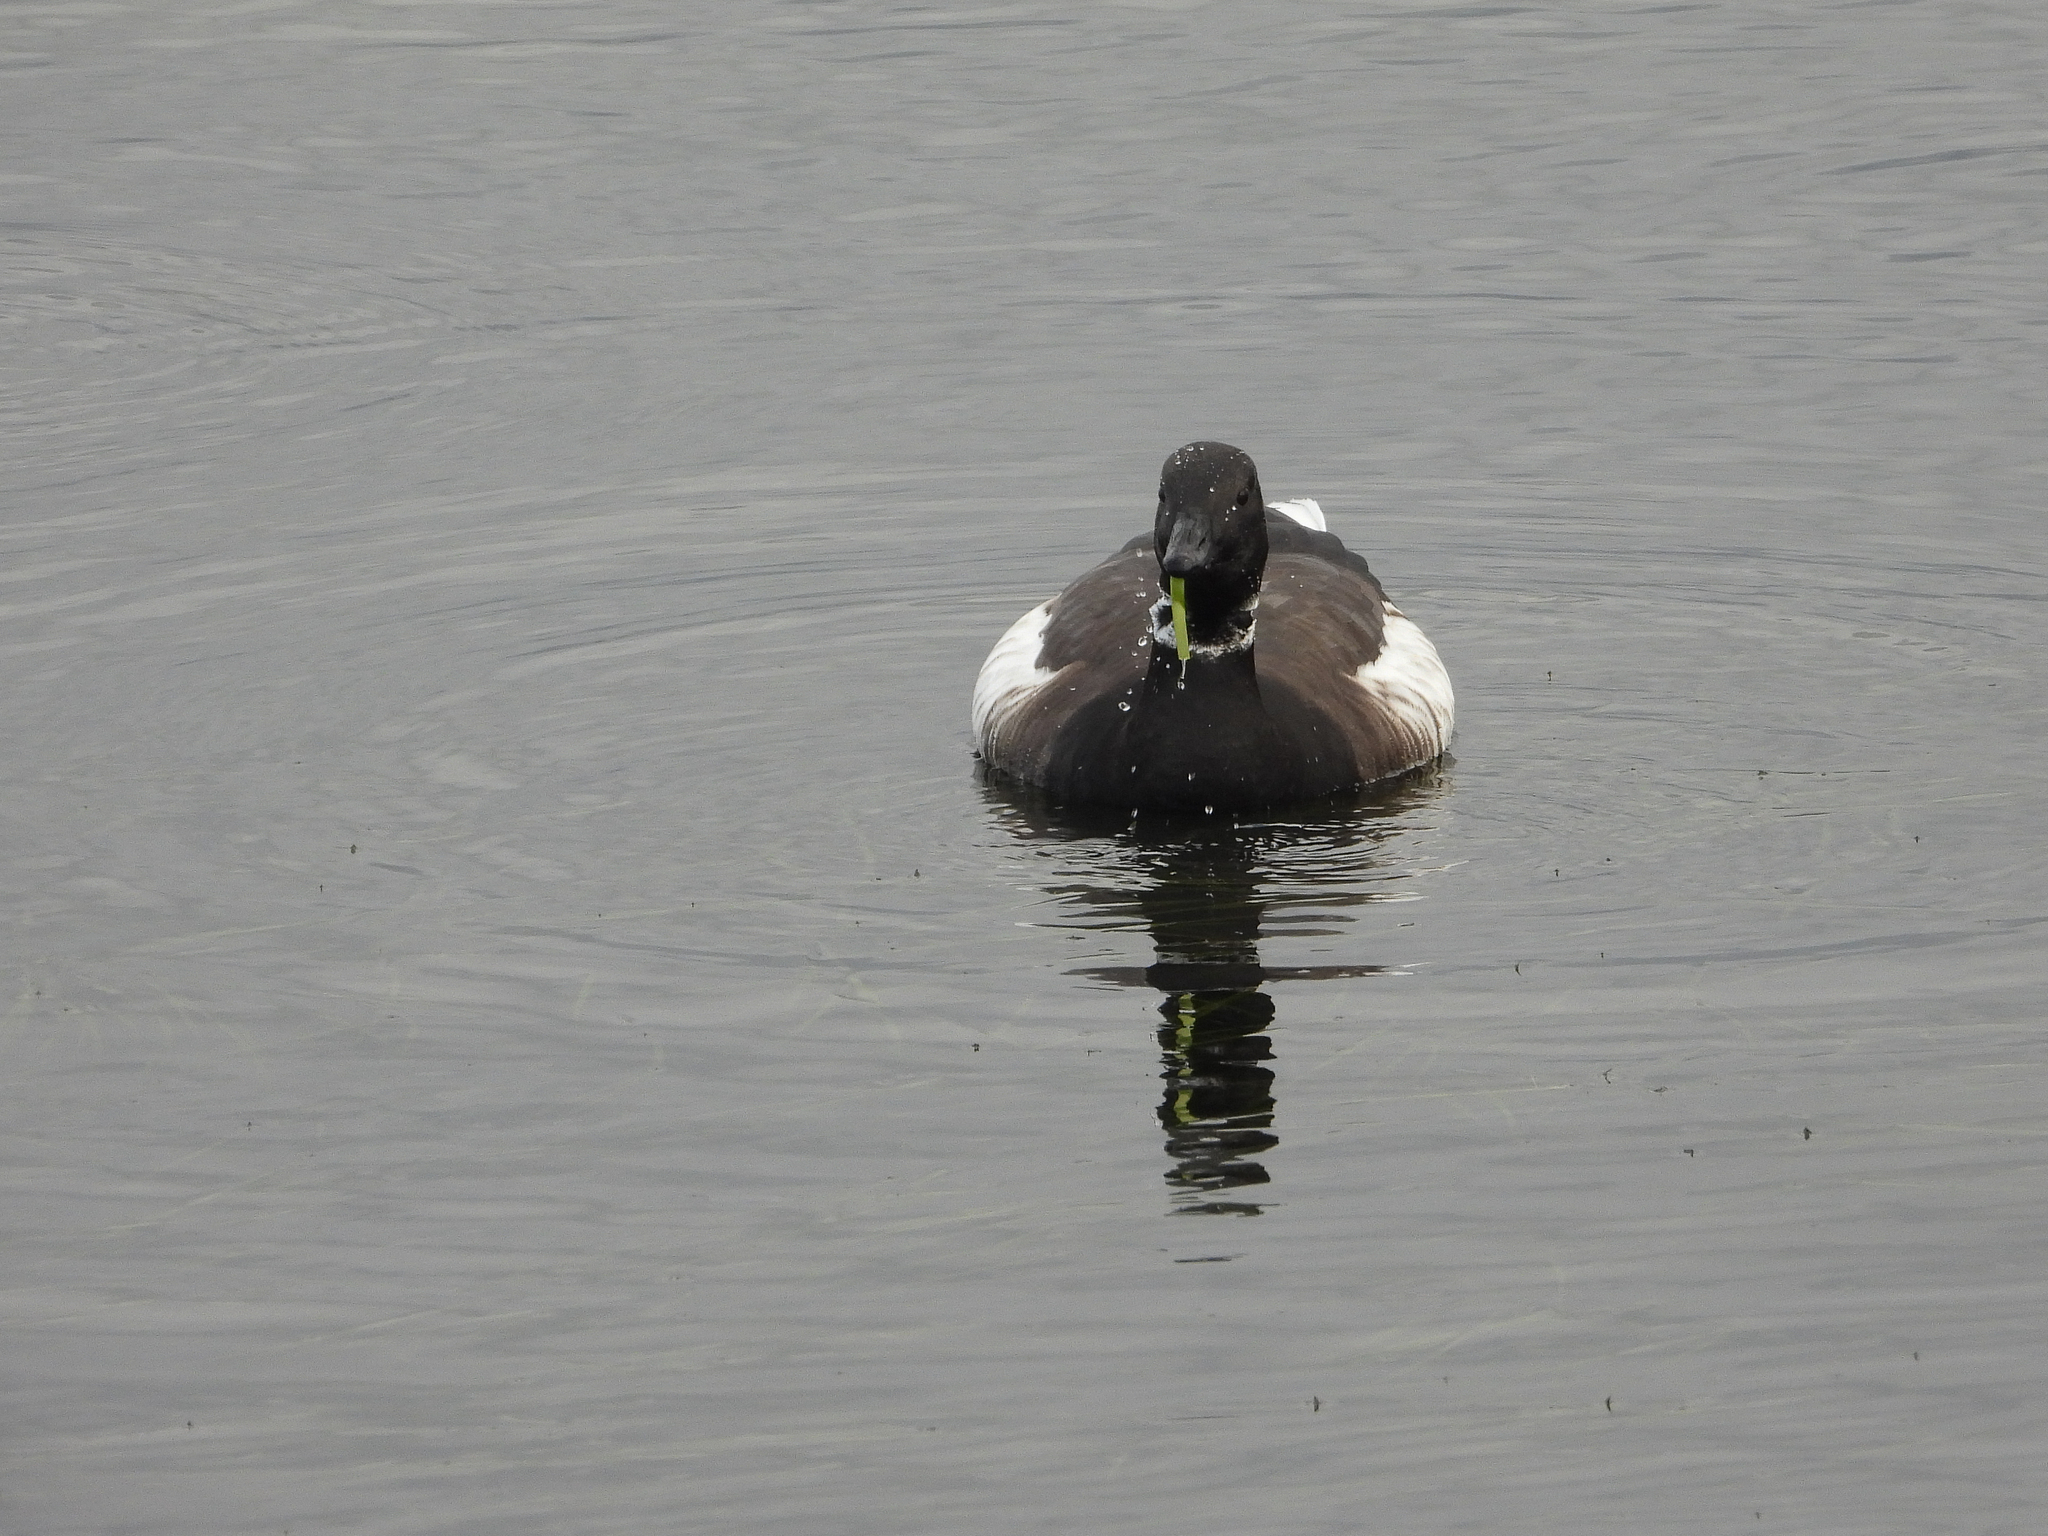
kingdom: Animalia
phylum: Chordata
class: Aves
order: Anseriformes
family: Anatidae
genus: Branta
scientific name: Branta bernicla
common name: Brant goose
